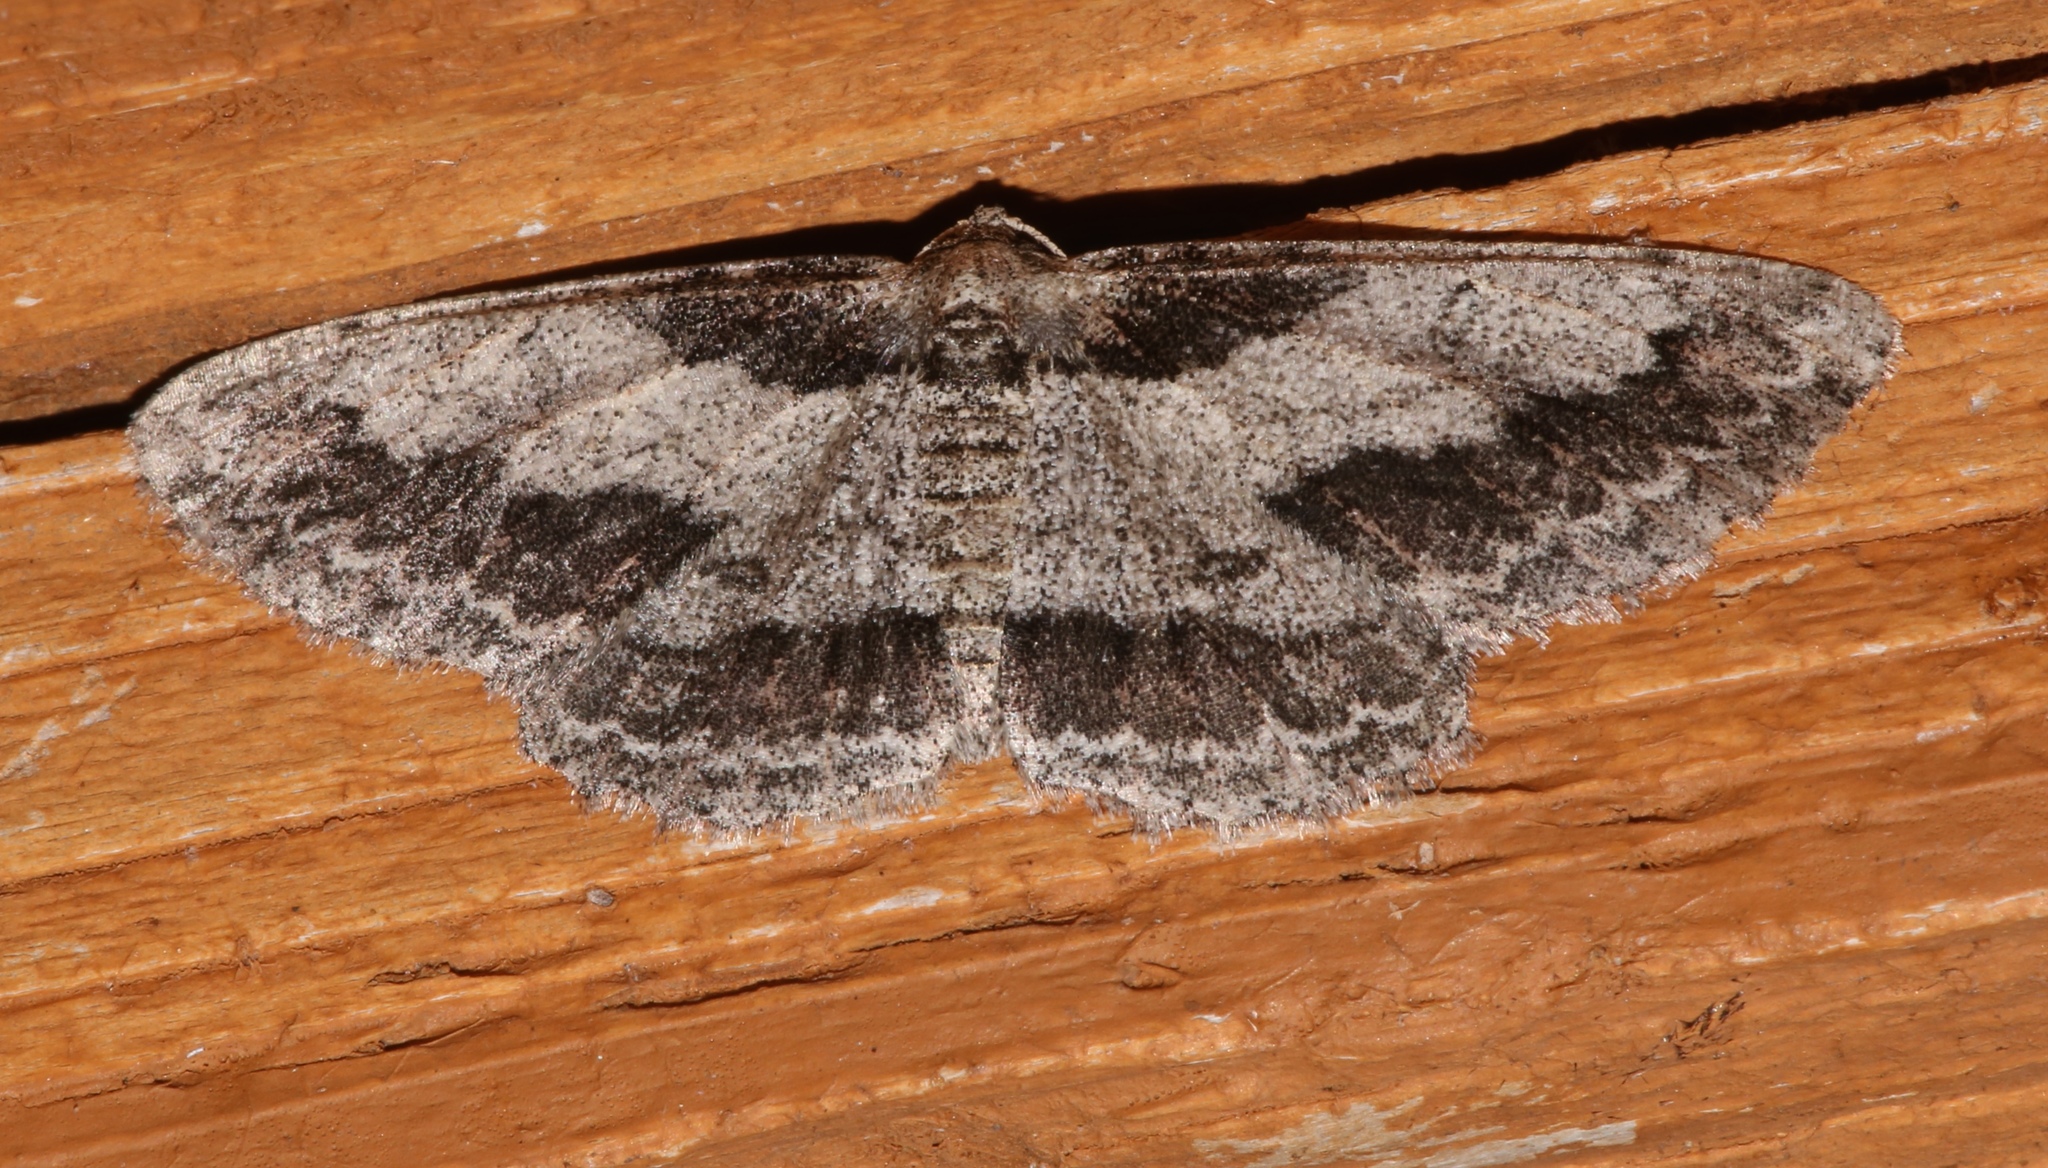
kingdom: Animalia
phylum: Arthropoda
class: Insecta
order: Lepidoptera
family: Geometridae
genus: Iridopsis
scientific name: Iridopsis pergracilis
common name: Cypress looper
